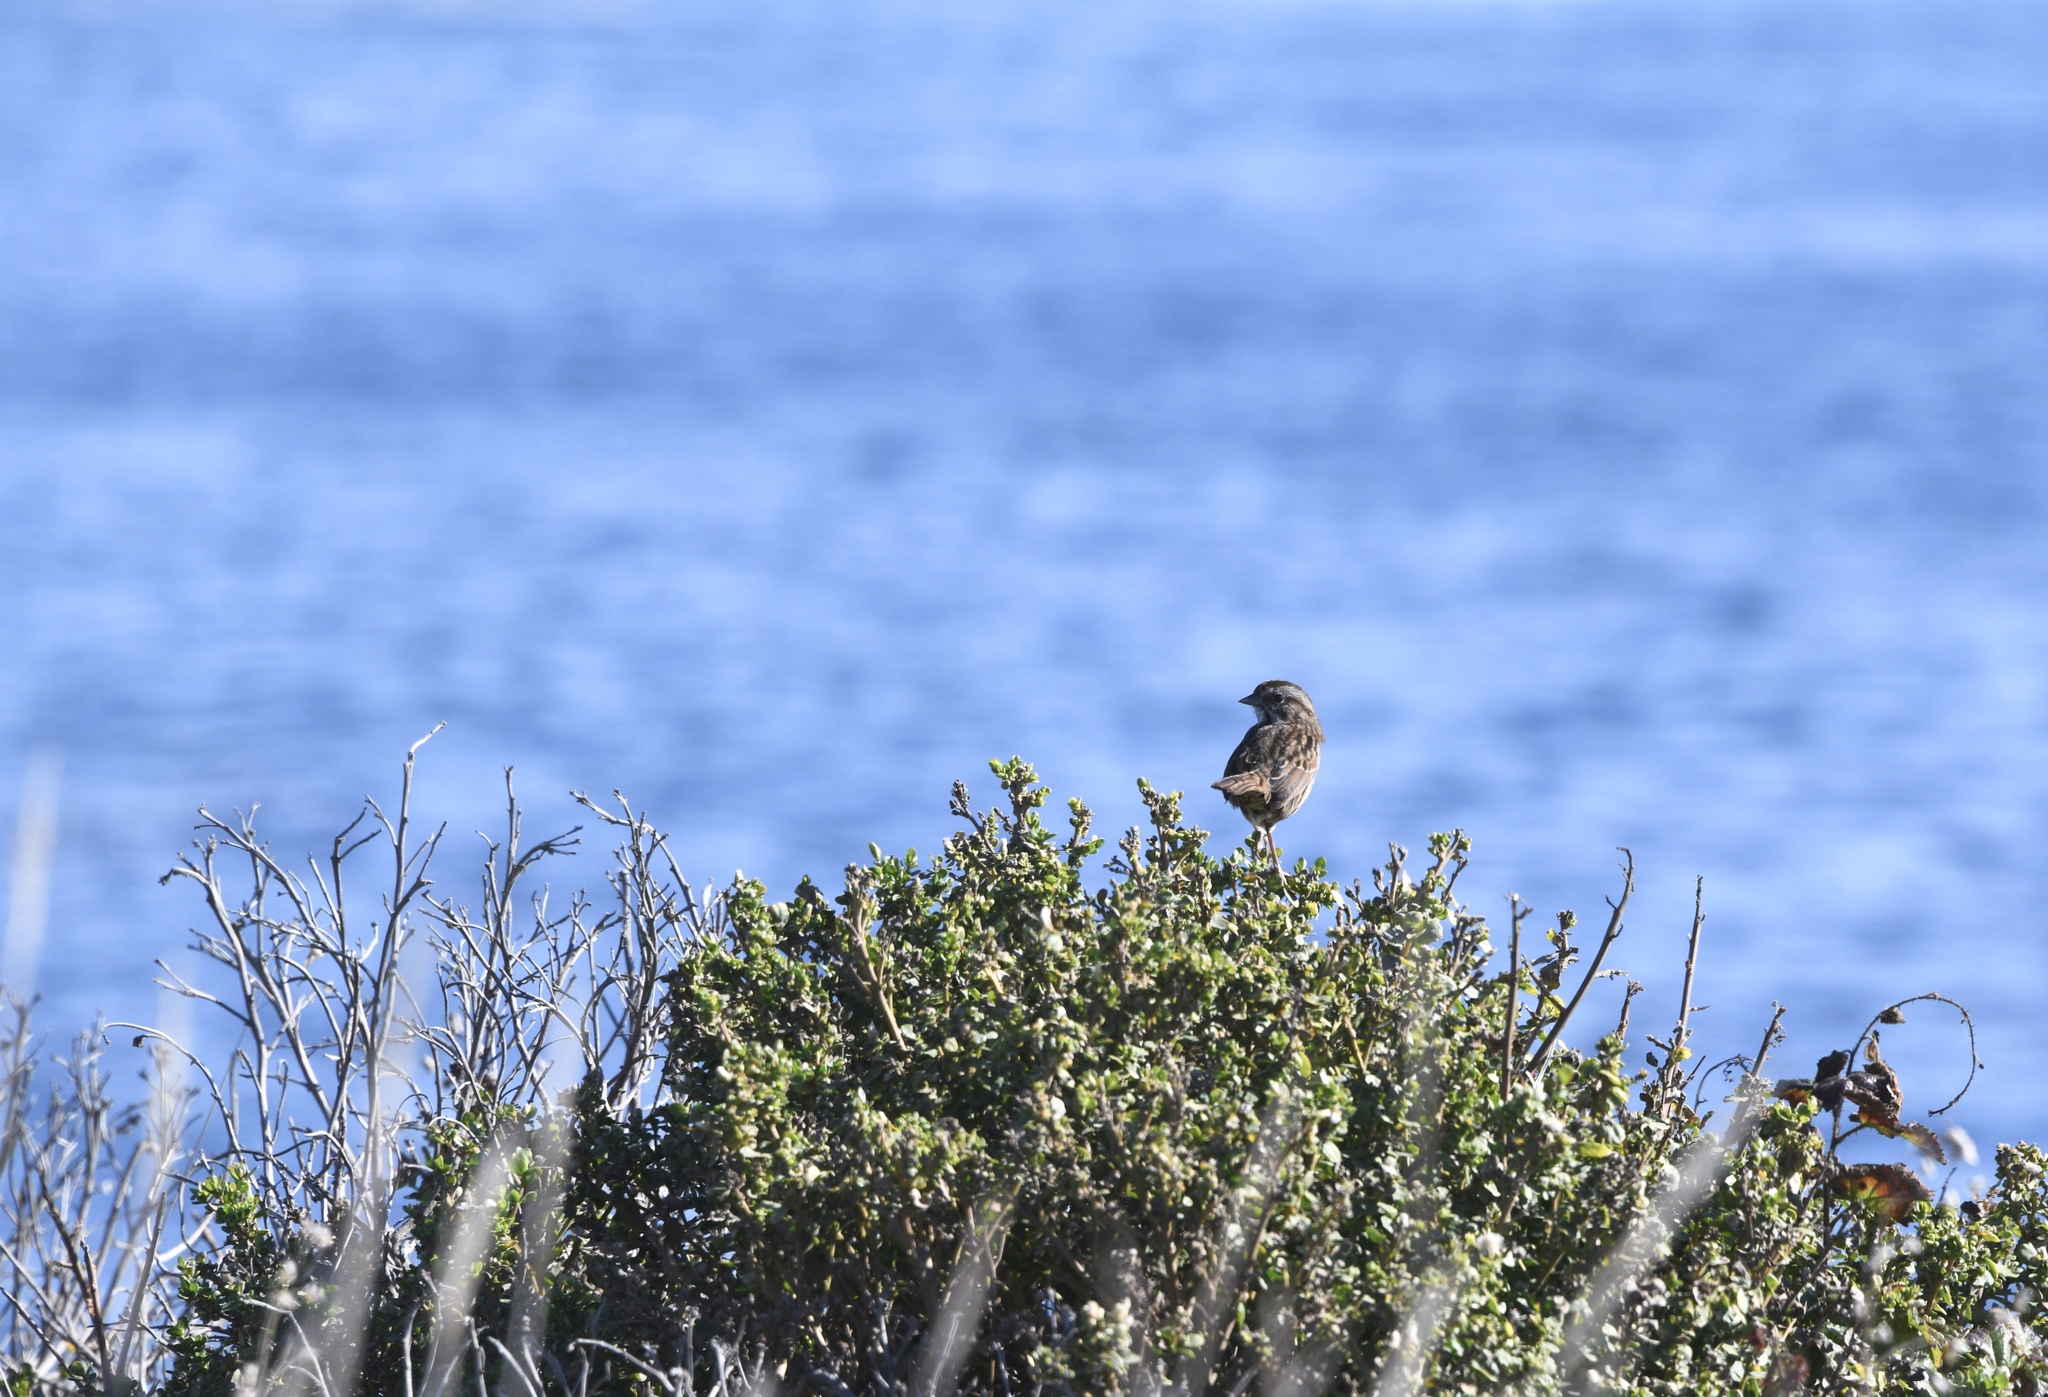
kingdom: Animalia
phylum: Chordata
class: Aves
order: Passeriformes
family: Passerellidae
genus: Melospiza
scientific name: Melospiza melodia
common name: Song sparrow
